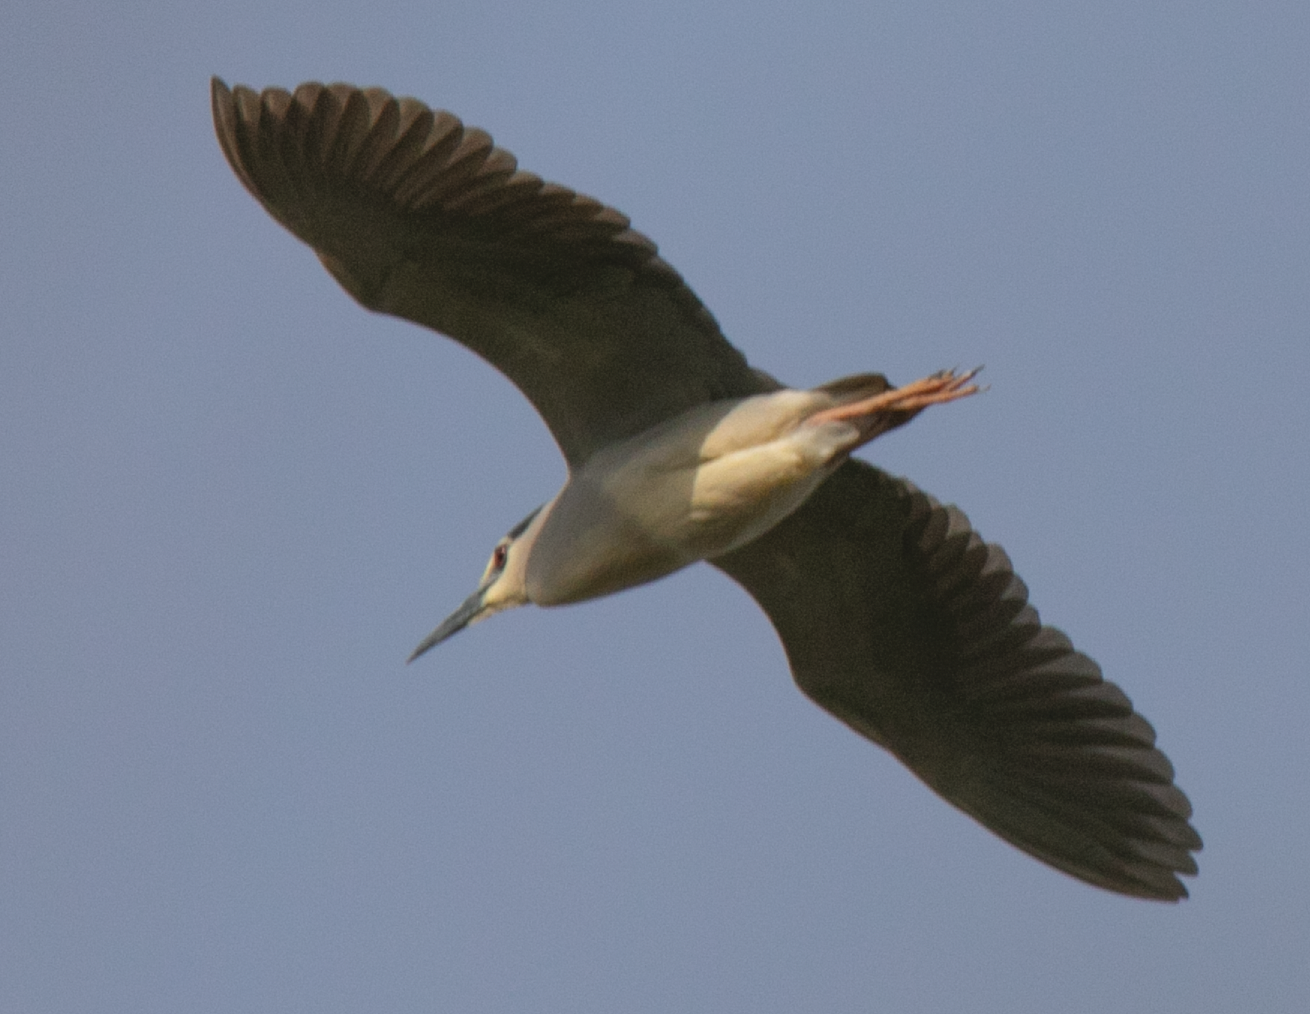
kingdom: Animalia
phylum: Chordata
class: Aves
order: Pelecaniformes
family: Ardeidae
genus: Nycticorax
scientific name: Nycticorax nycticorax
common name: Black-crowned night heron
